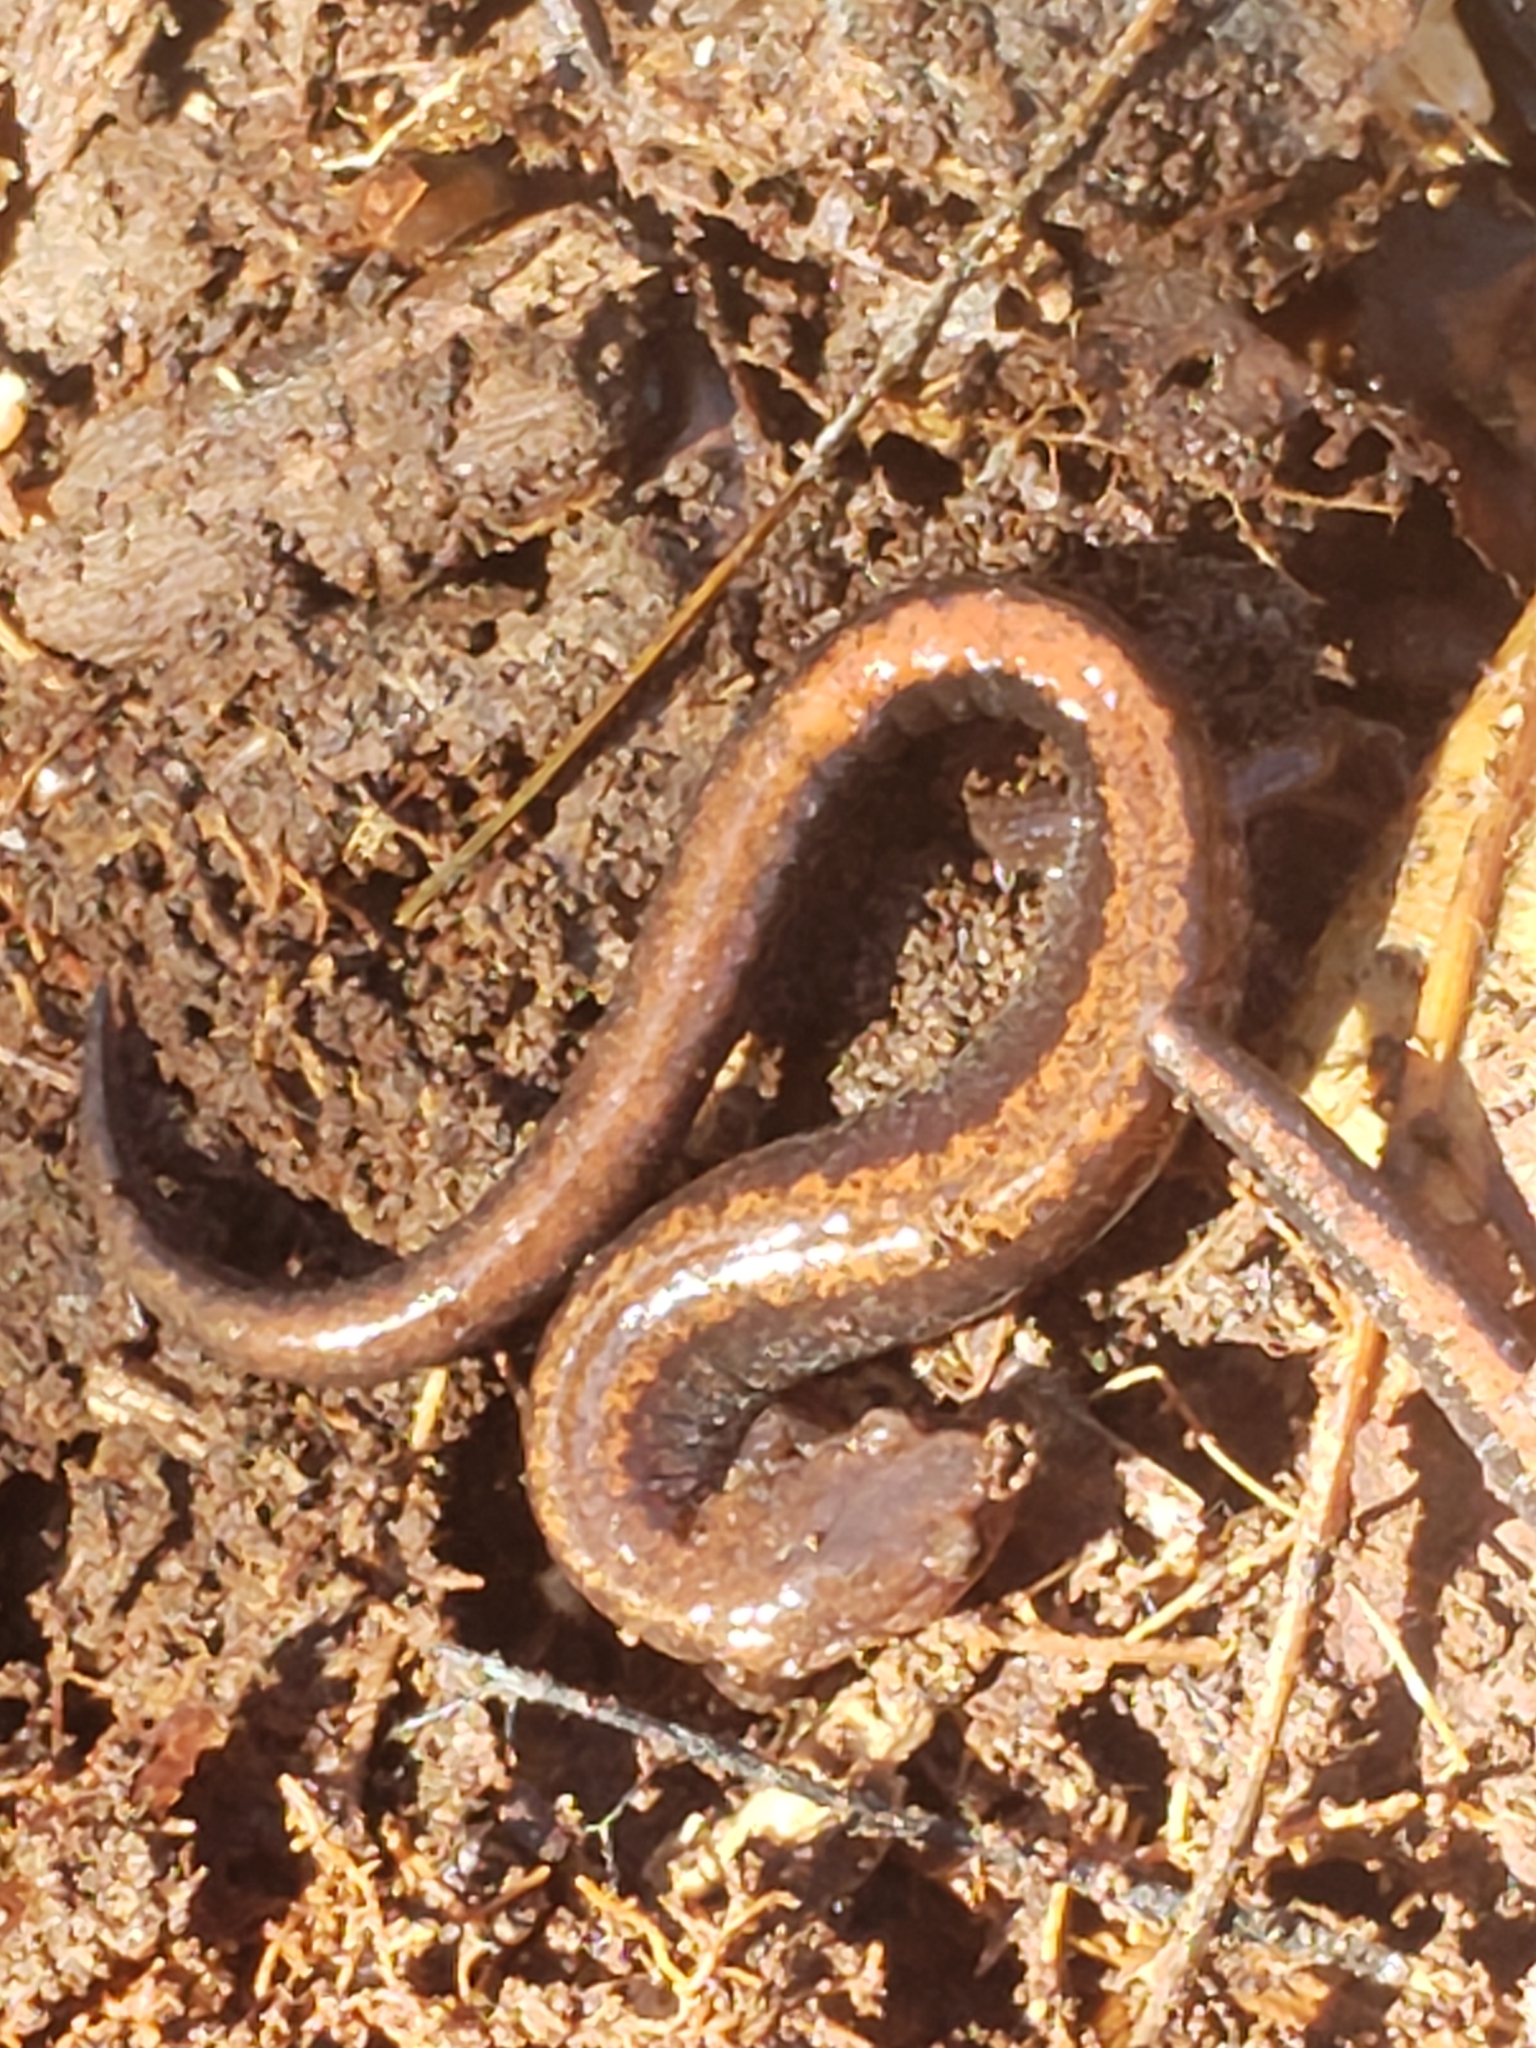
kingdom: Animalia
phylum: Chordata
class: Amphibia
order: Caudata
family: Plethodontidae
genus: Plethodon
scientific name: Plethodon cinereus
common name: Redback salamander
